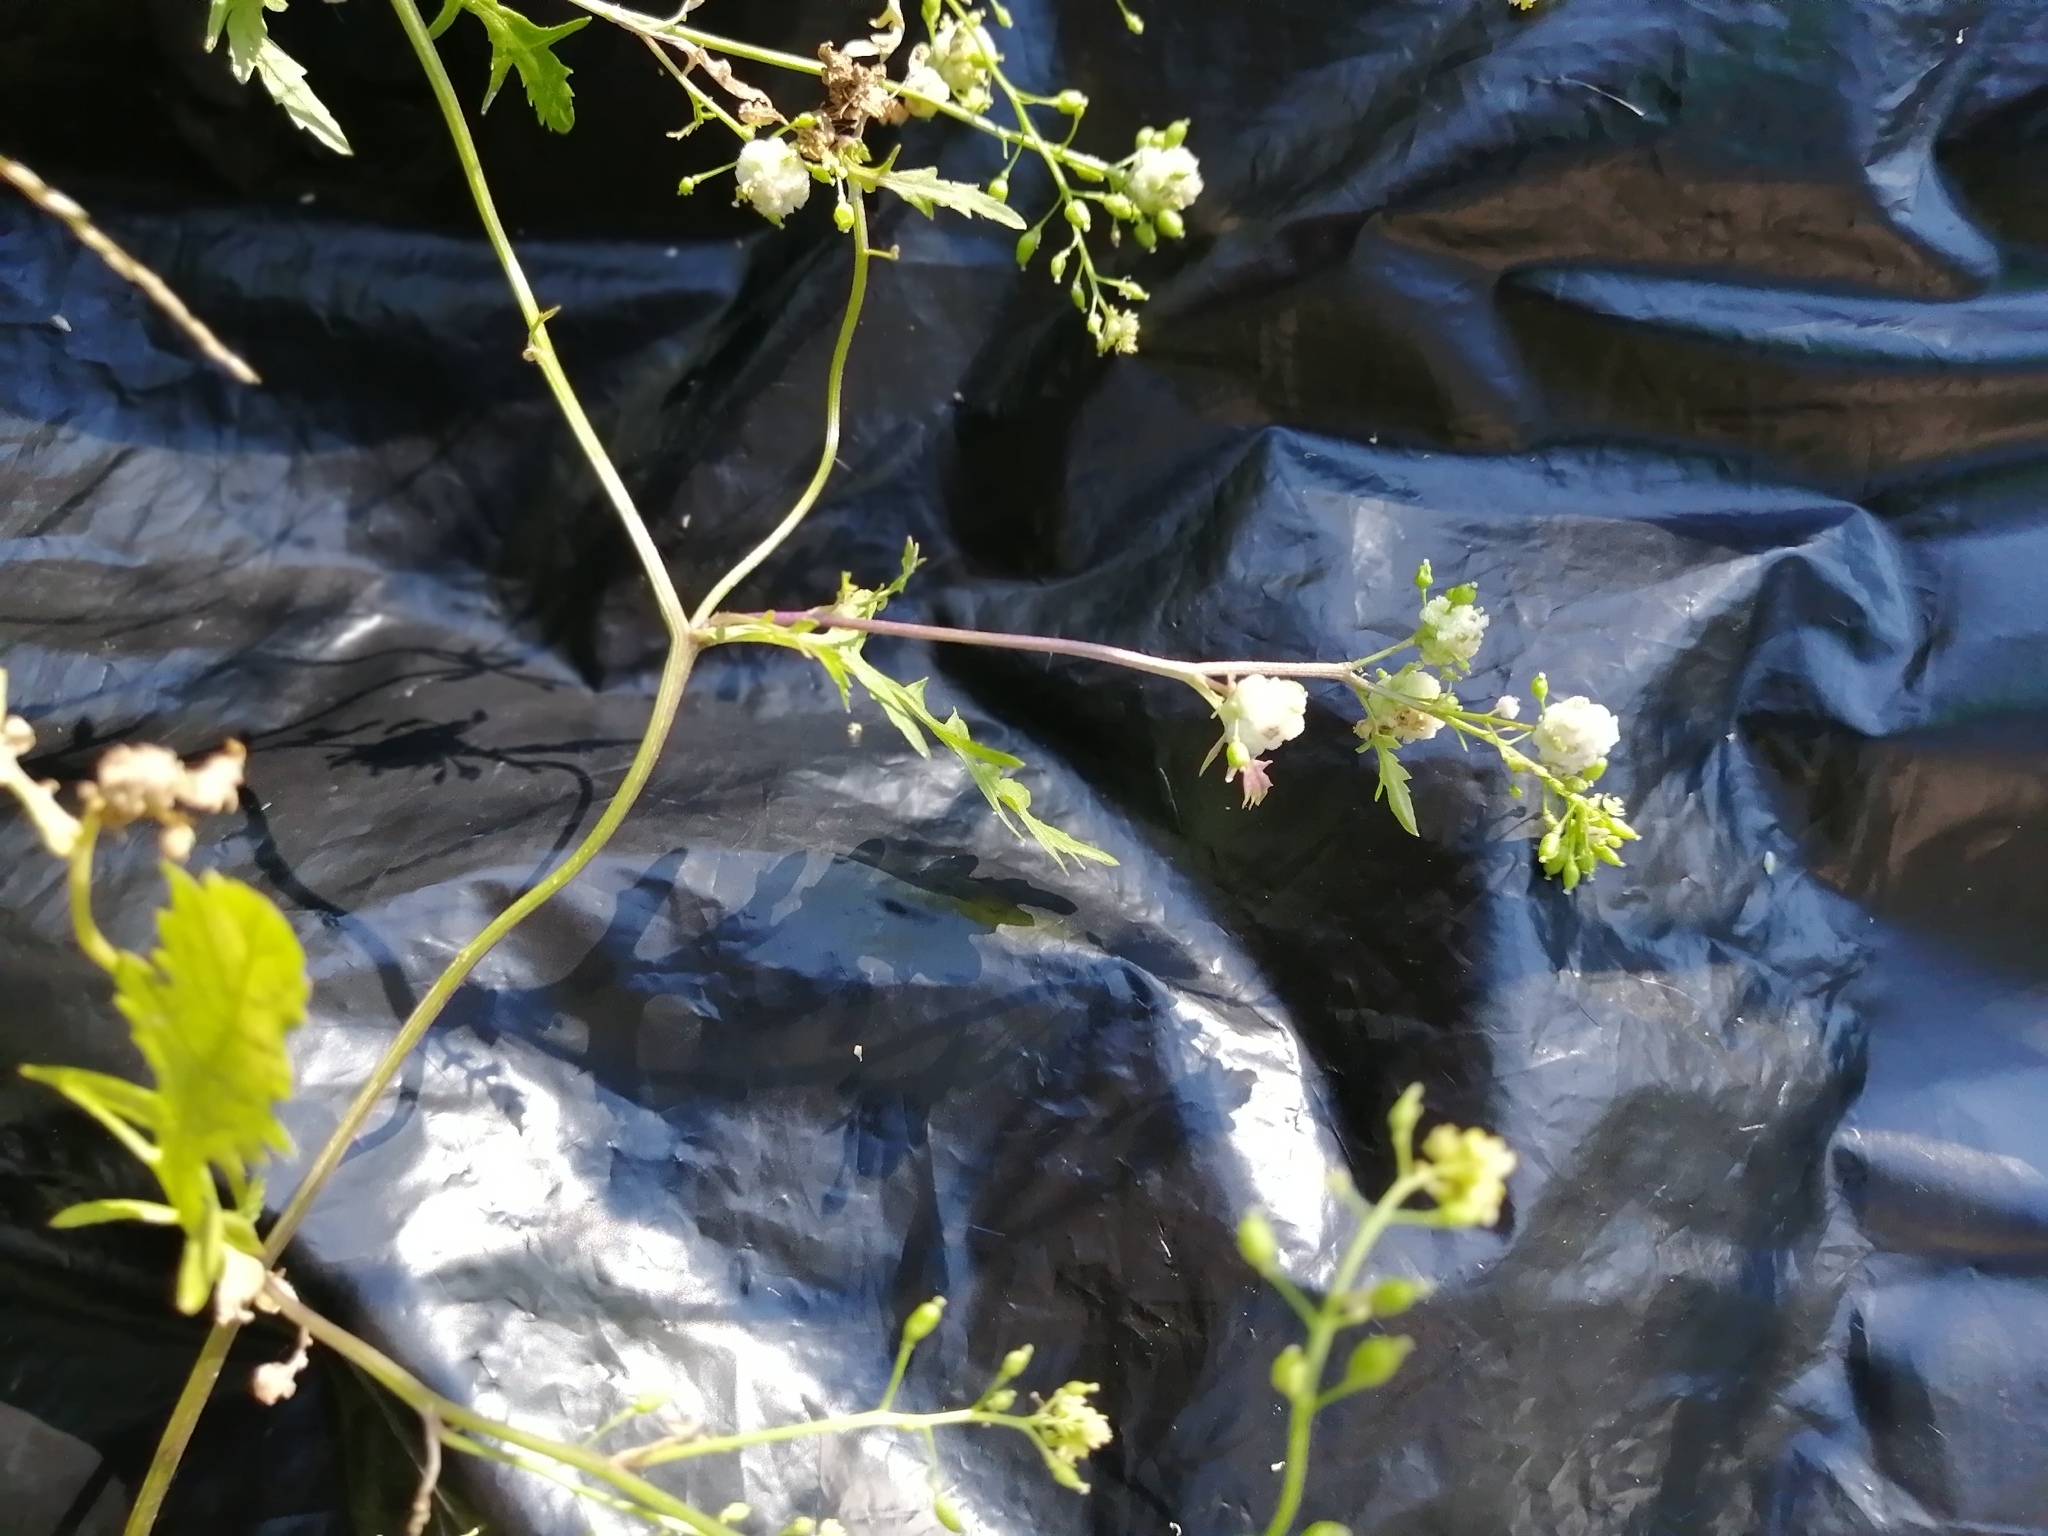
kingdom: Plantae
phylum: Tracheophyta
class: Magnoliopsida
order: Brassicales
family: Brassicaceae
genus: Rorippa
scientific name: Rorippa palustris
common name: Marsh yellow-cress
